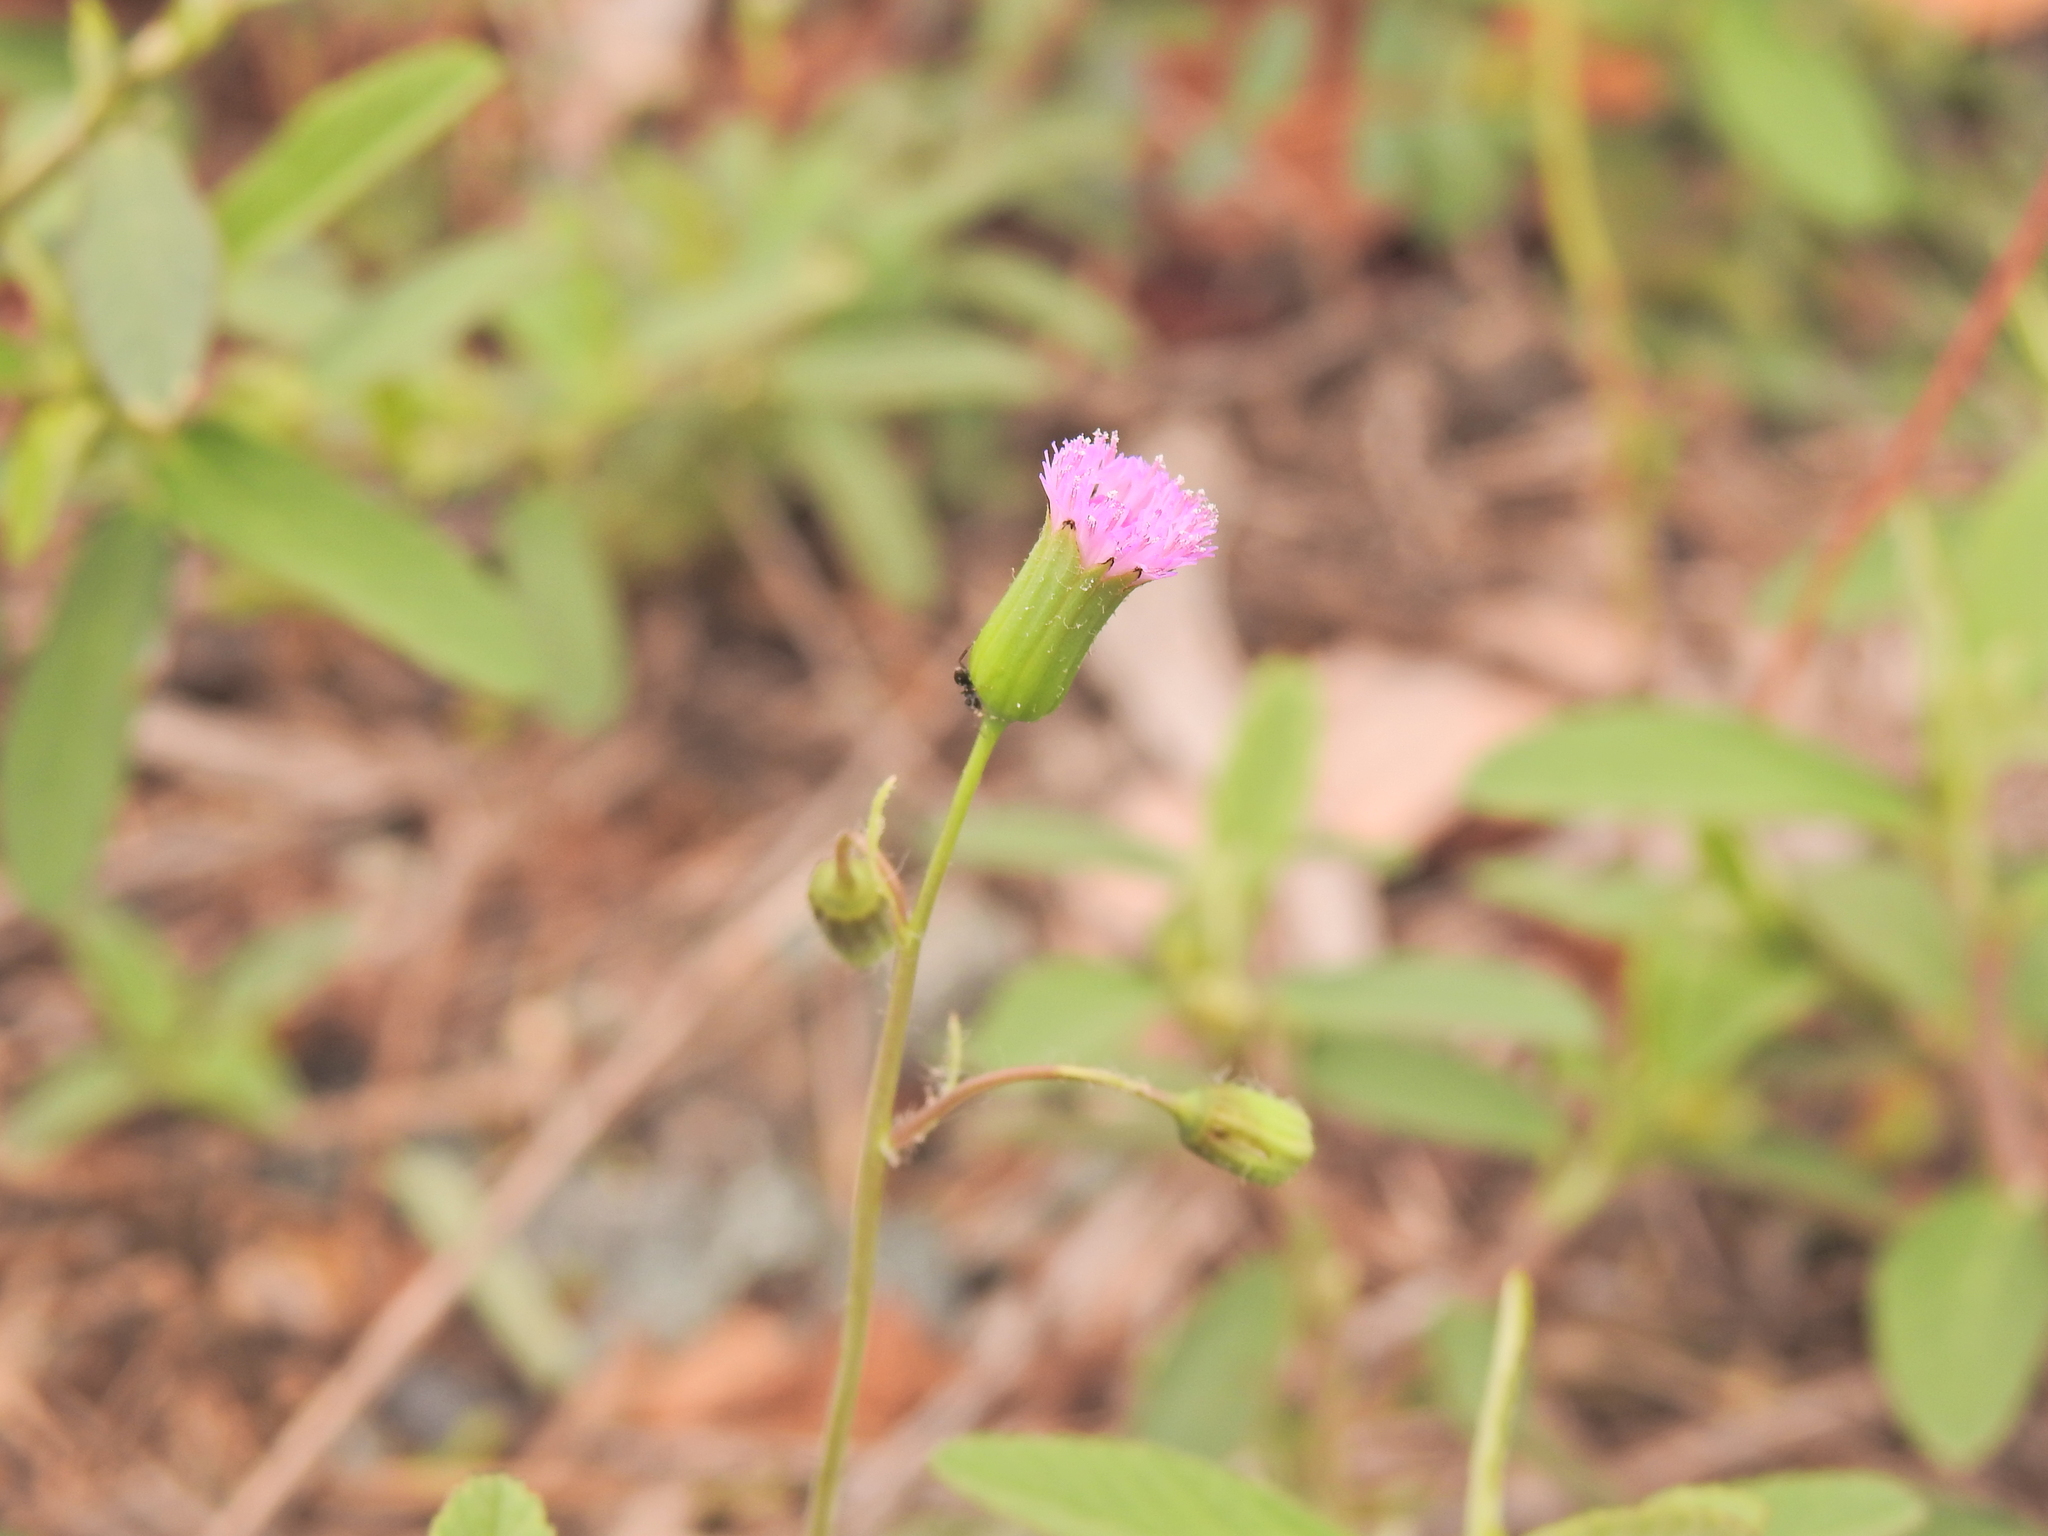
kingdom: Plantae
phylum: Tracheophyta
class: Magnoliopsida
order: Asterales
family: Asteraceae
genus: Emilia
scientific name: Emilia javanica
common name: Tassel-flower
